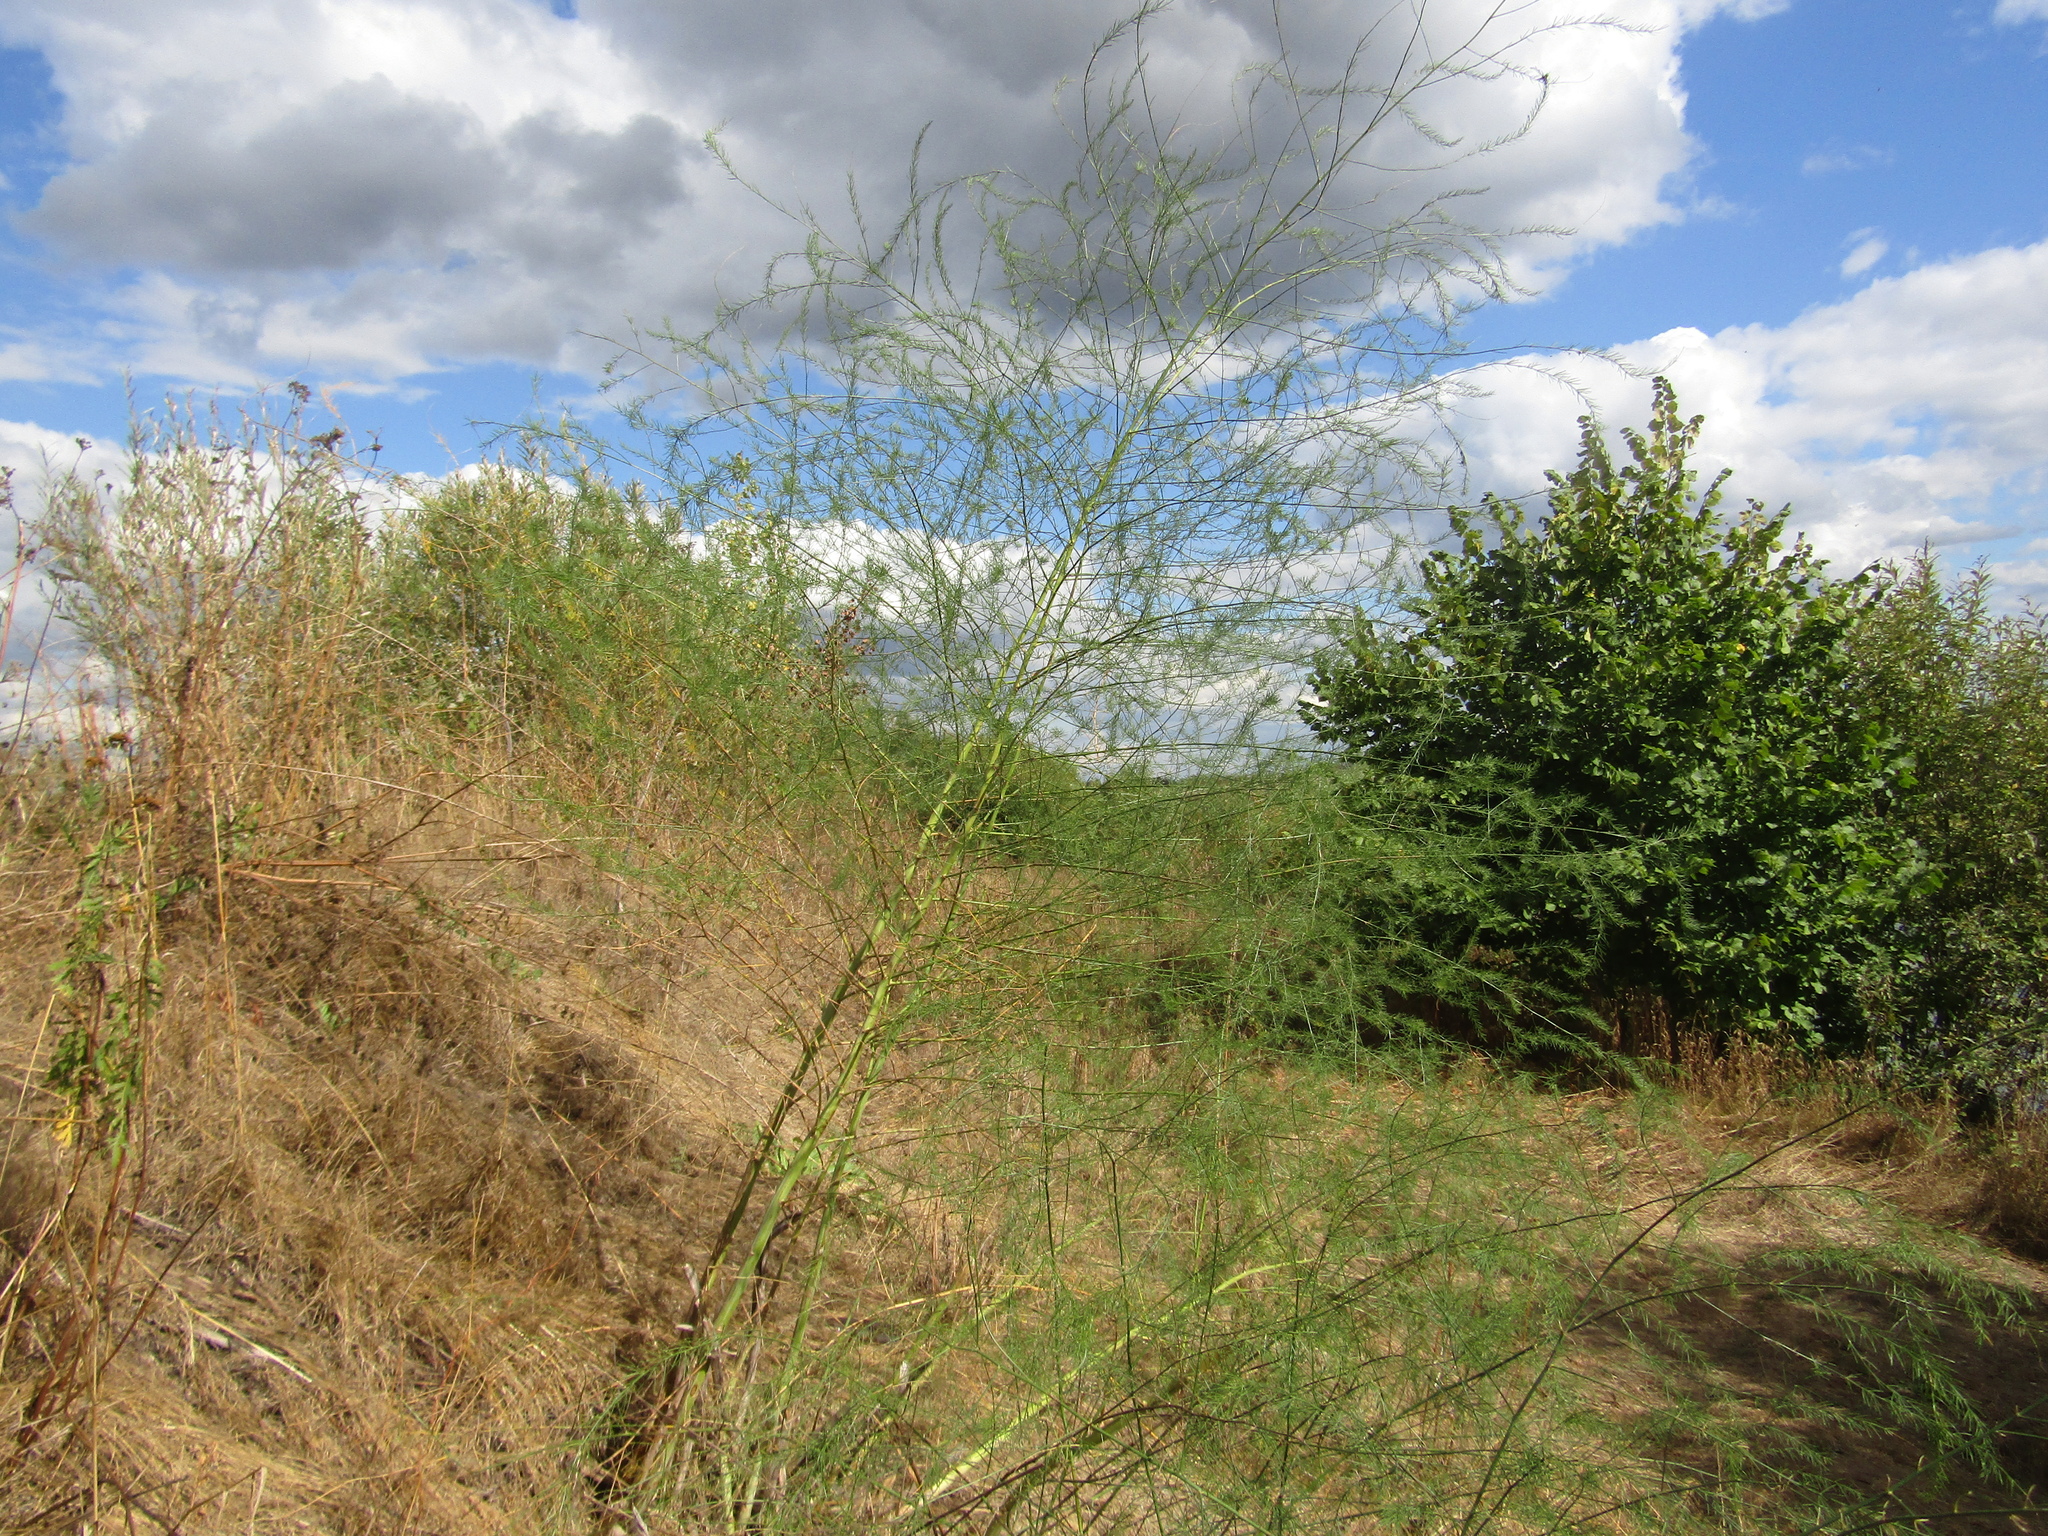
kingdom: Plantae
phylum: Tracheophyta
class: Liliopsida
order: Asparagales
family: Asparagaceae
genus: Asparagus
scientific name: Asparagus officinalis
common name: Garden asparagus
